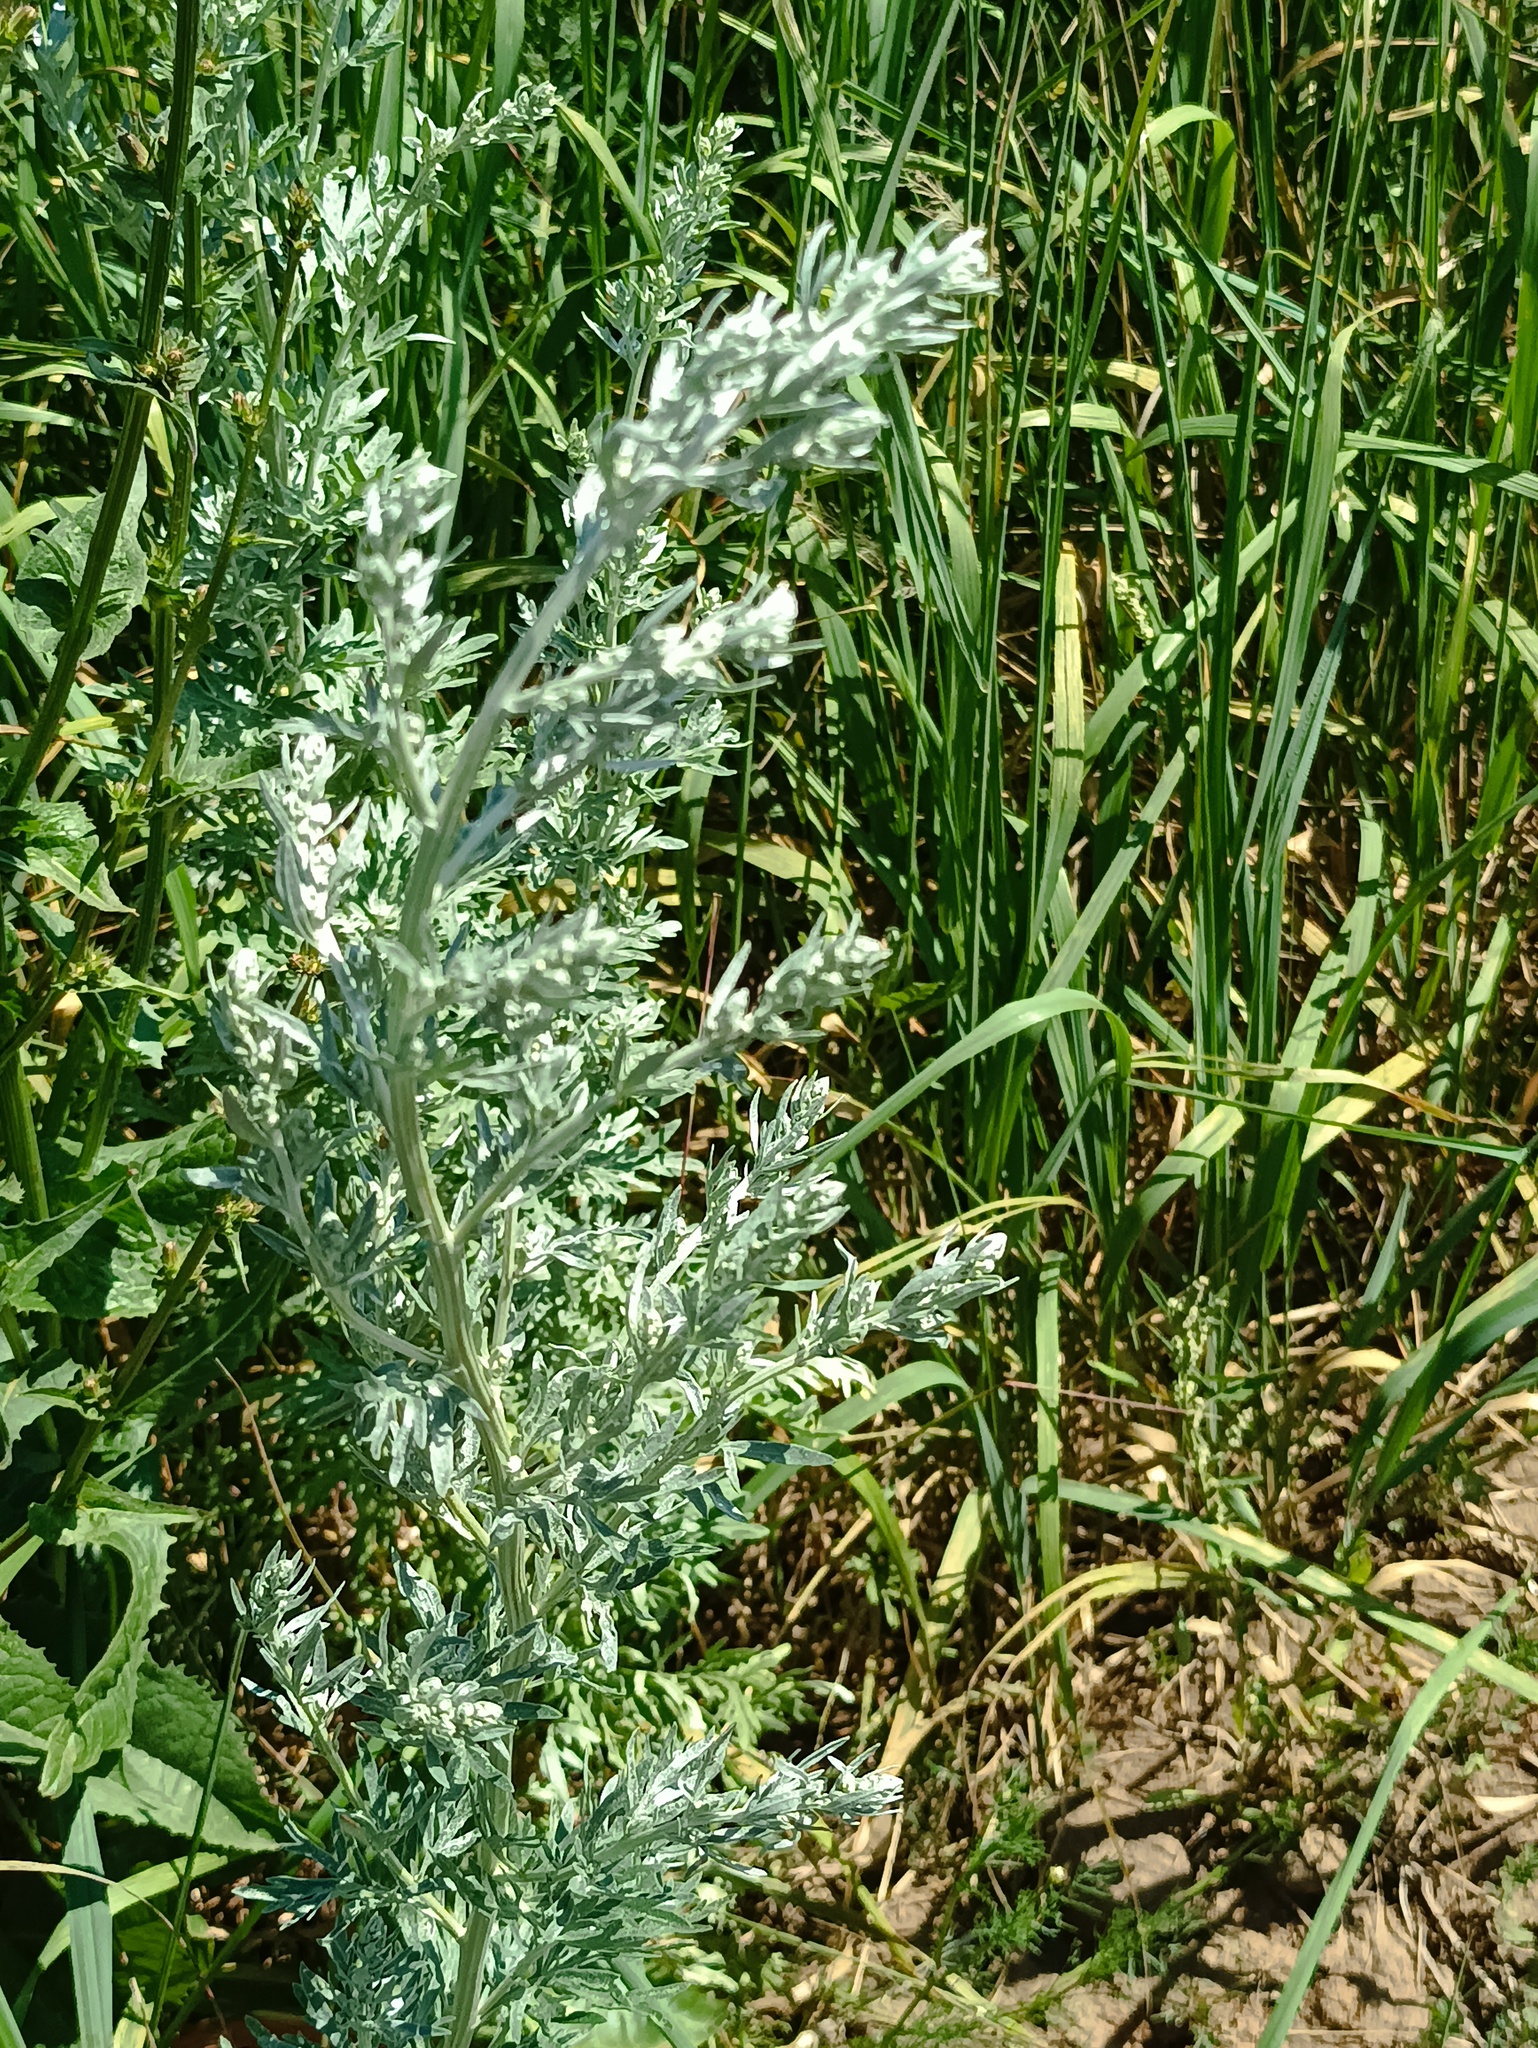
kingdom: Plantae
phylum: Tracheophyta
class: Magnoliopsida
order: Asterales
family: Asteraceae
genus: Artemisia
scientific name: Artemisia absinthium
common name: Wormwood
